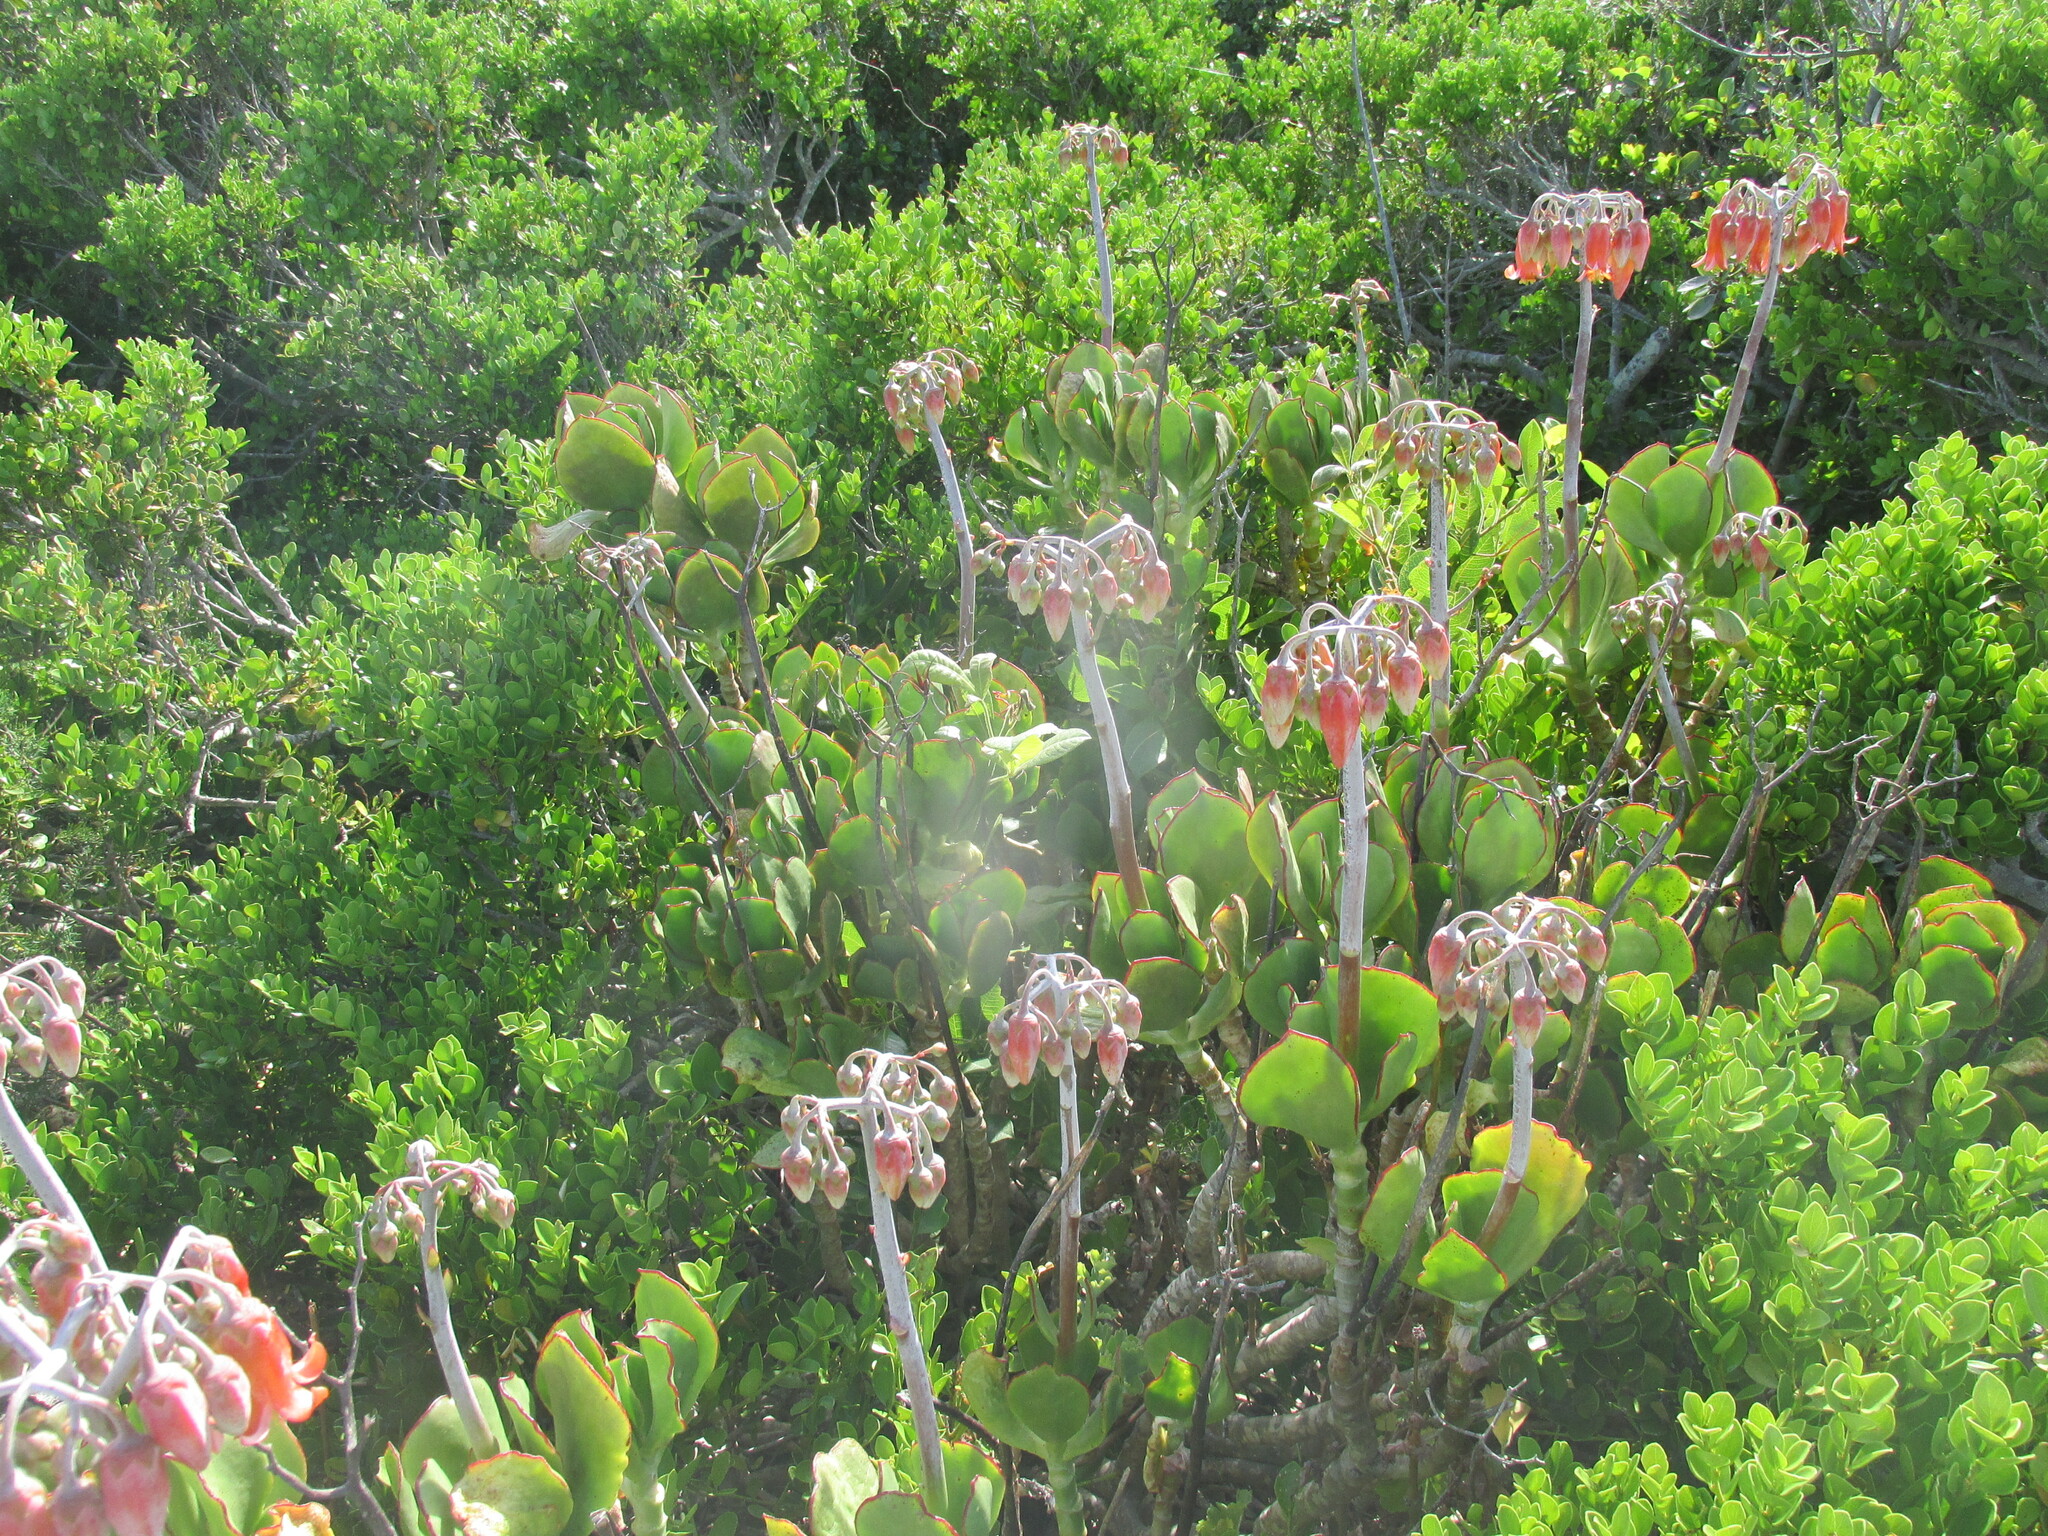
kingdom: Plantae
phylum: Tracheophyta
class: Magnoliopsida
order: Saxifragales
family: Crassulaceae
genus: Cotyledon
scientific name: Cotyledon orbiculata
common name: Pig's ear
